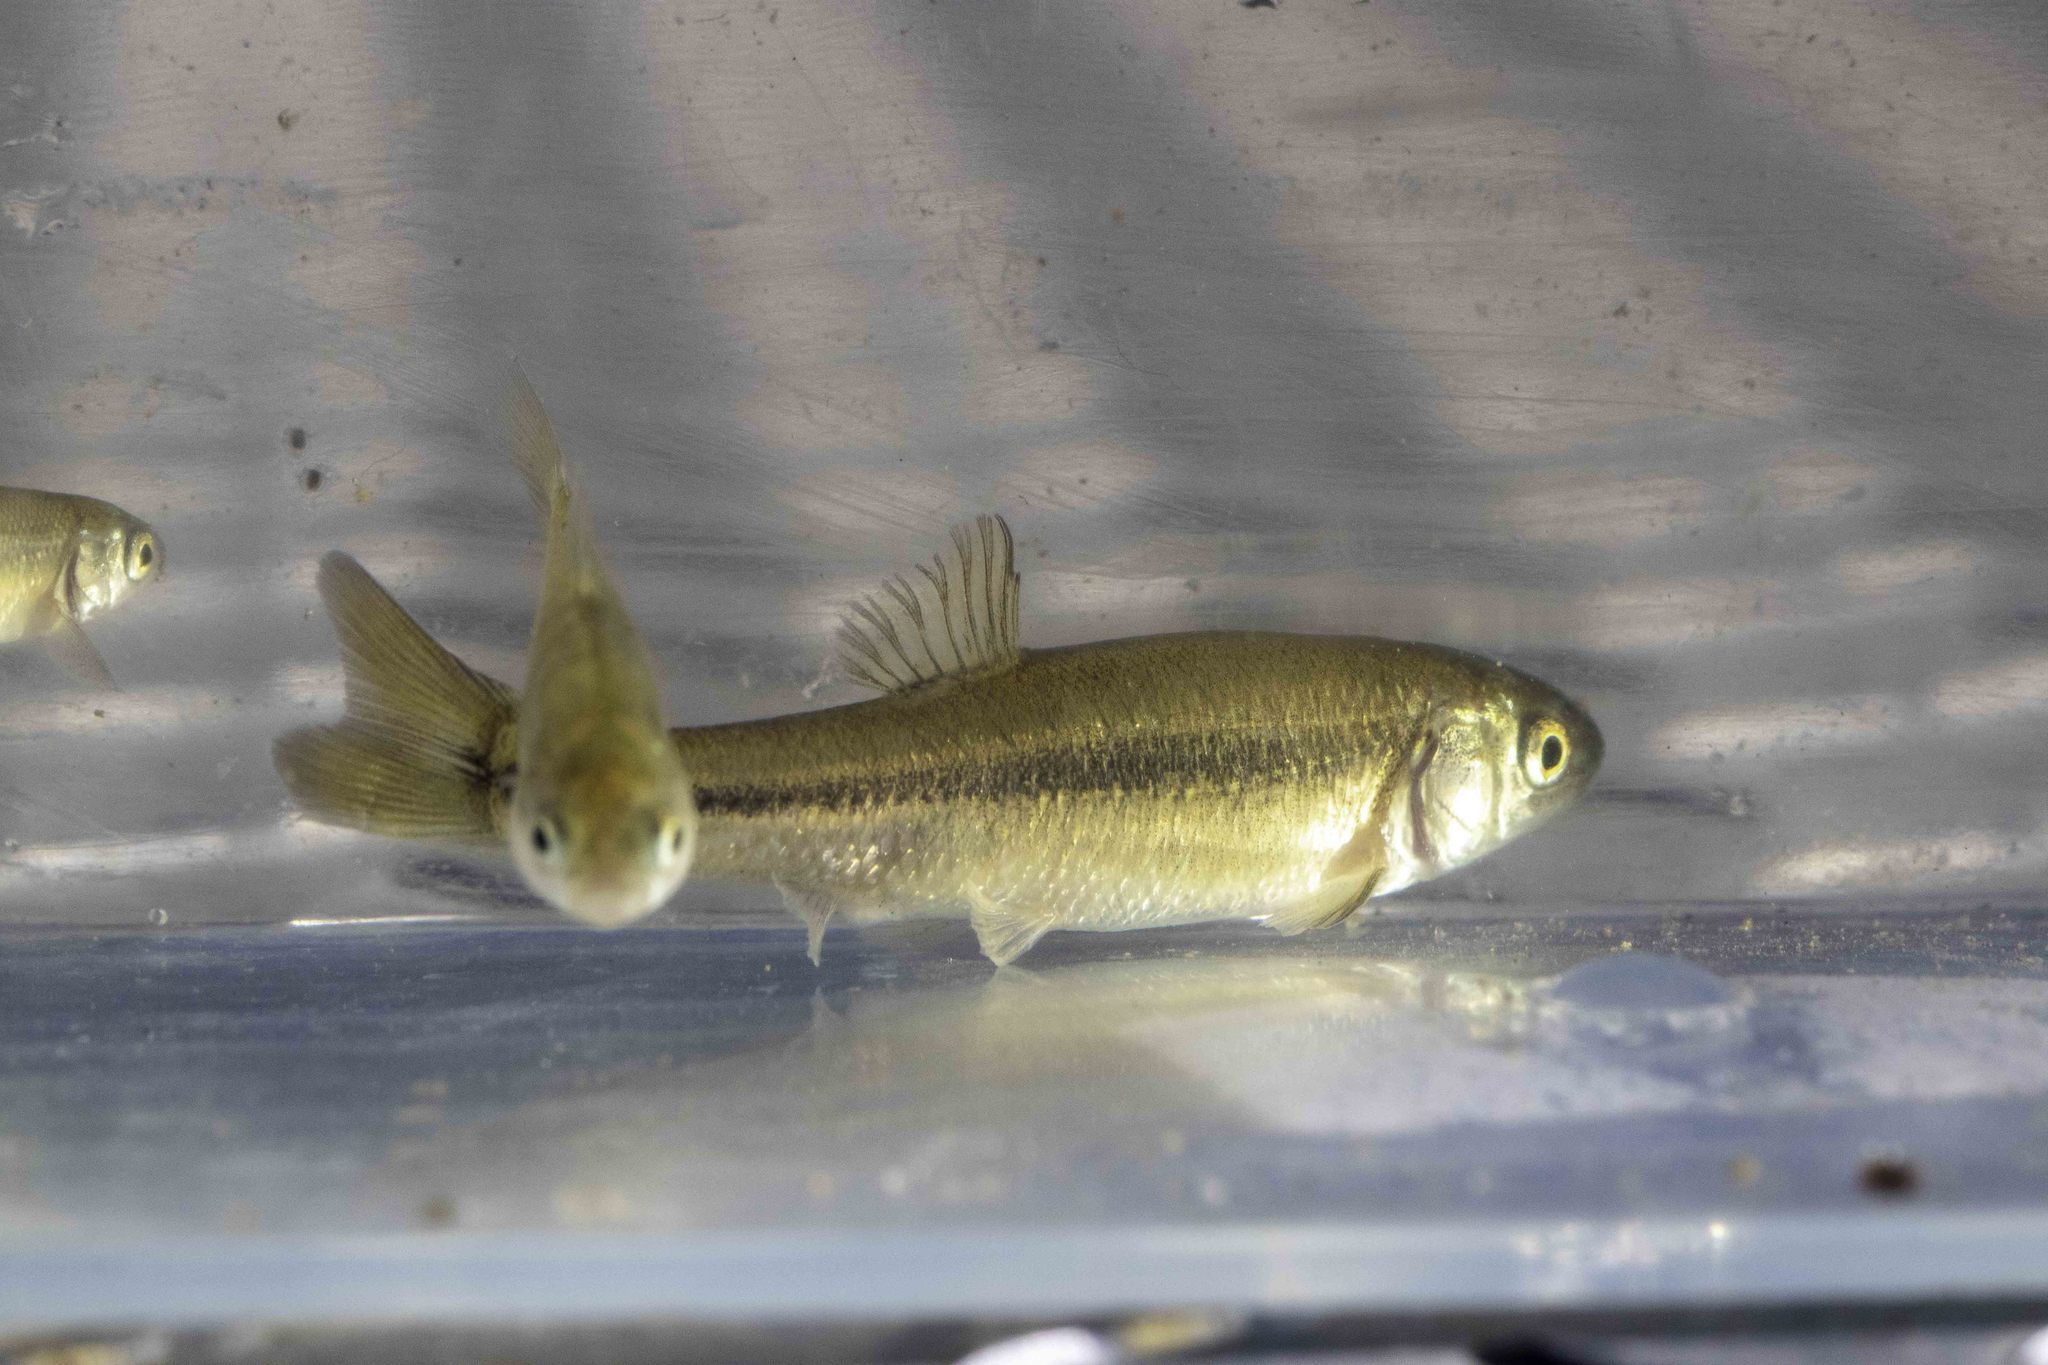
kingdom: Animalia
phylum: Chordata
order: Cypriniformes
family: Cyprinidae
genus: Pimephales
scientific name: Pimephales promelas
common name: Fathead minnow
